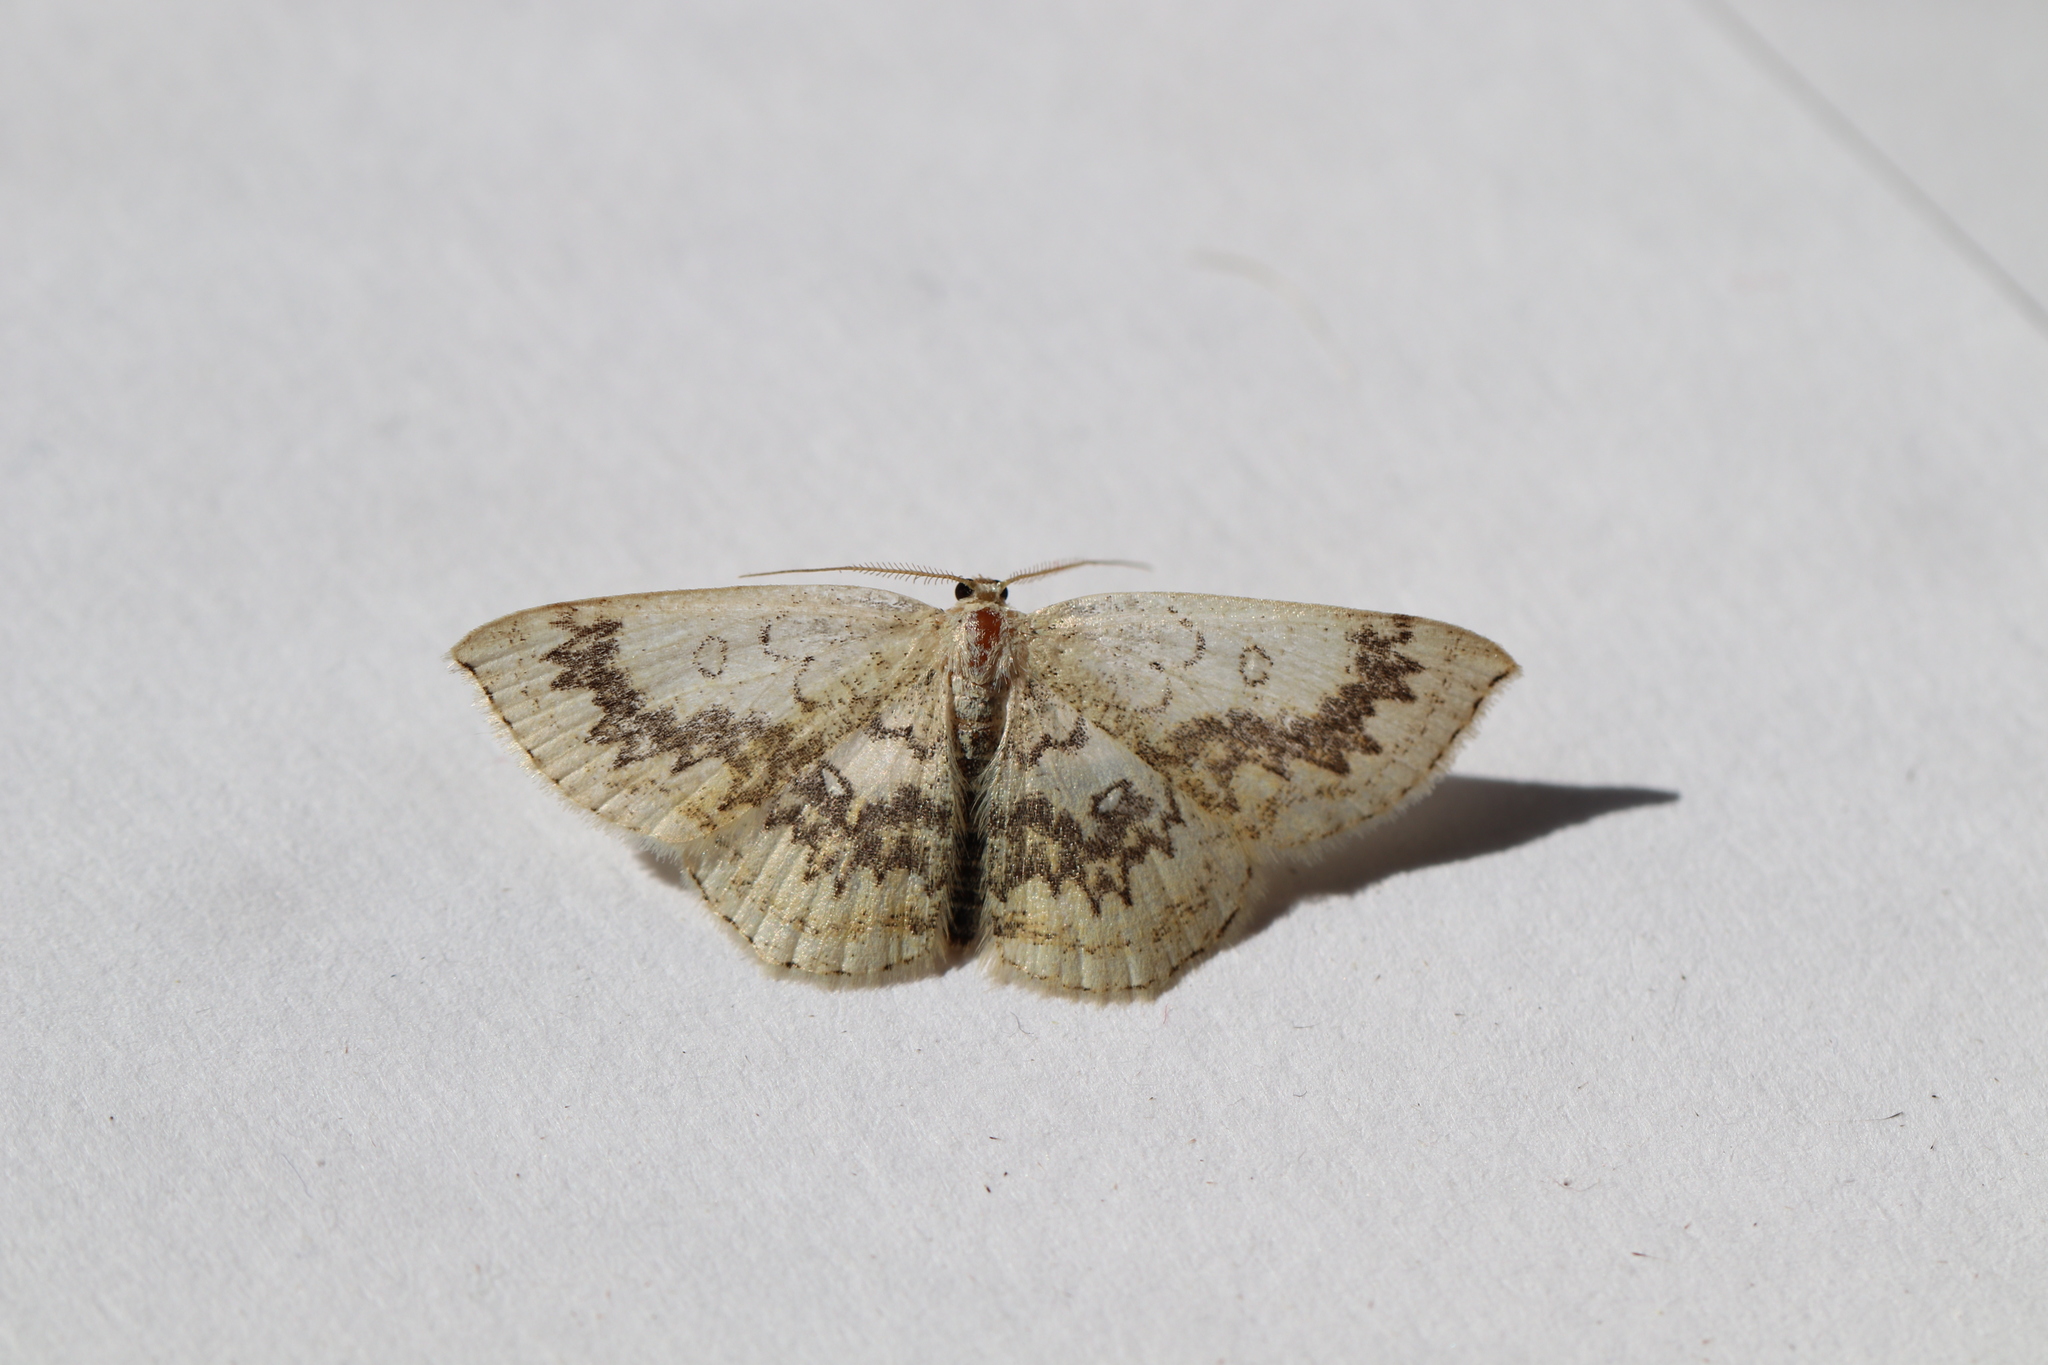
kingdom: Animalia
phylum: Arthropoda
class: Insecta
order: Lepidoptera
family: Geometridae
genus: Cyclophora
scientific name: Cyclophora annularia
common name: Mocha
